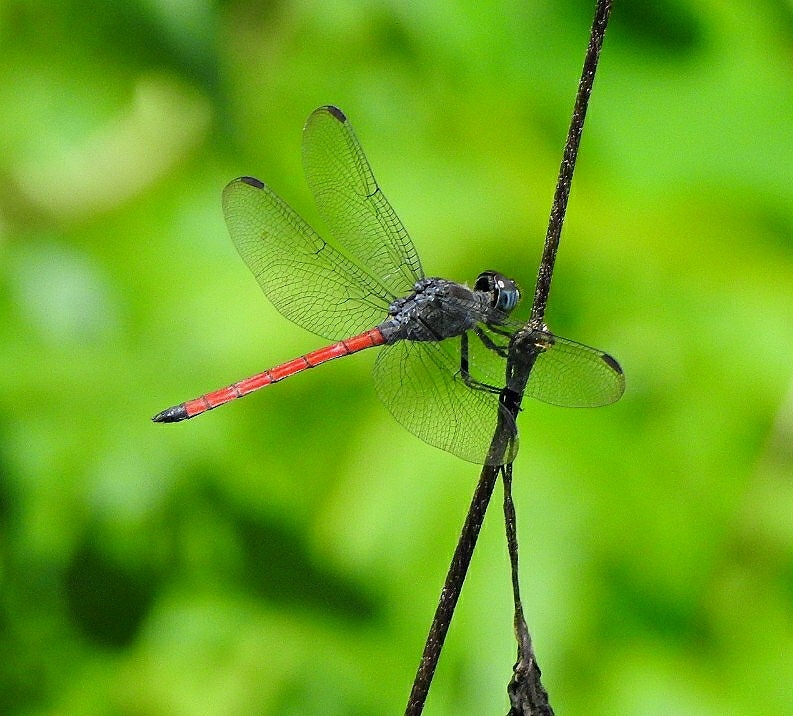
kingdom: Animalia
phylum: Arthropoda
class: Insecta
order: Odonata
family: Libellulidae
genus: Lathrecista
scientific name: Lathrecista asiatica
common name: Scarlet grenadier
